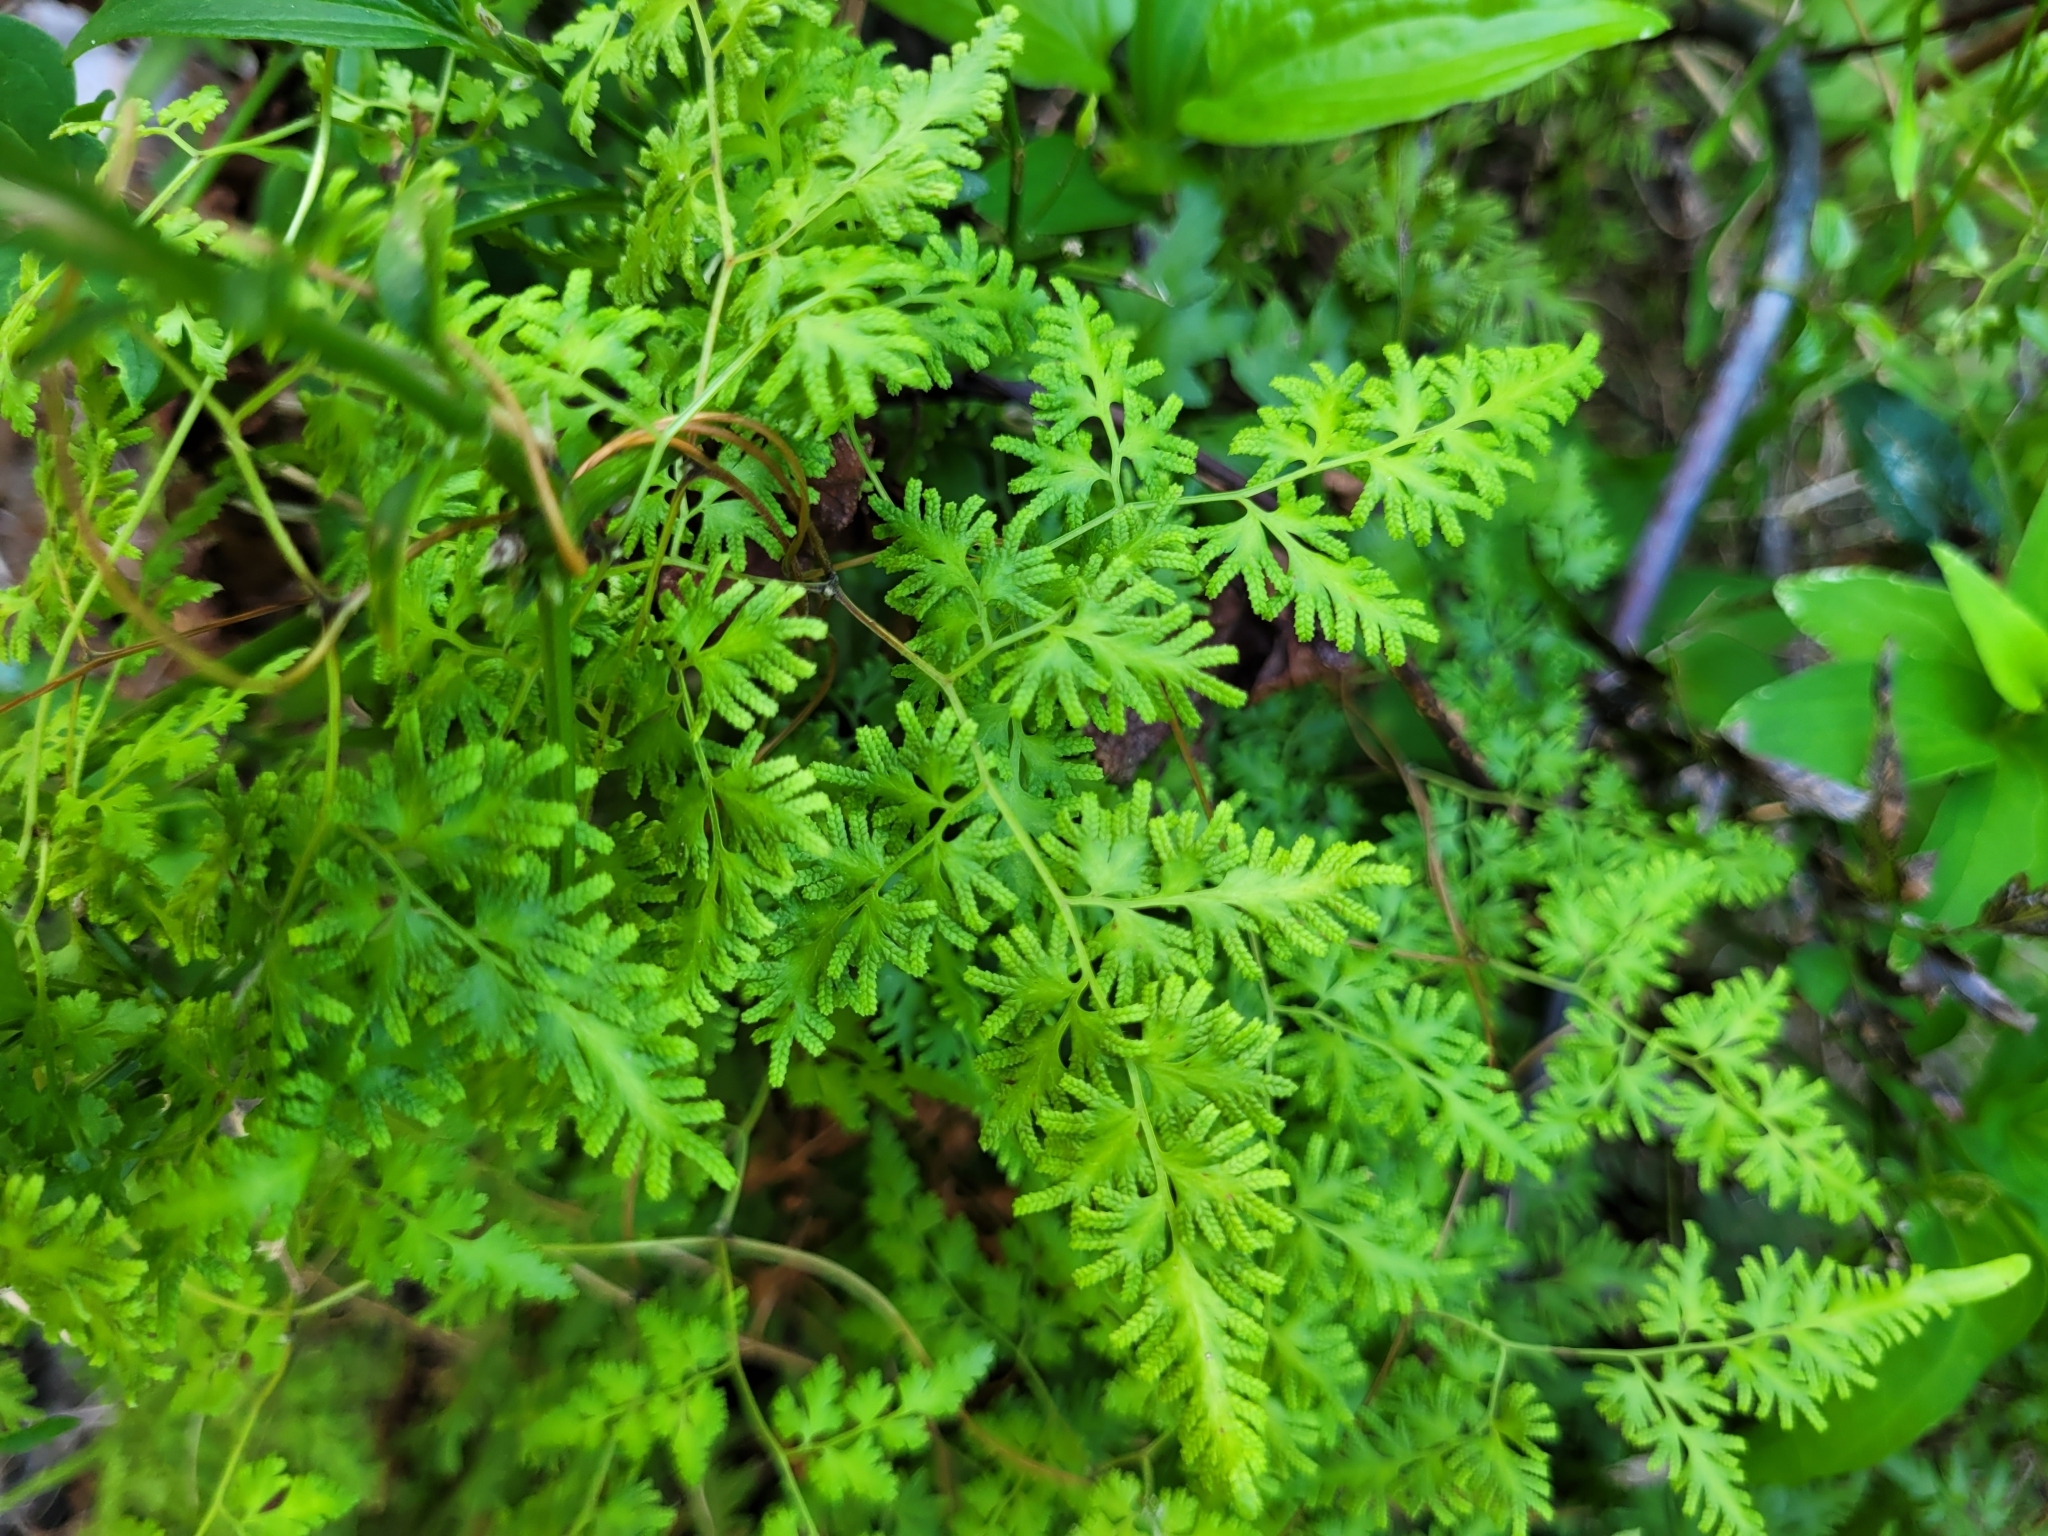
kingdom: Plantae
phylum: Tracheophyta
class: Polypodiopsida
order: Schizaeales
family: Lygodiaceae
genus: Lygodium
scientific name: Lygodium japonicum
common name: Japanese climbing fern
